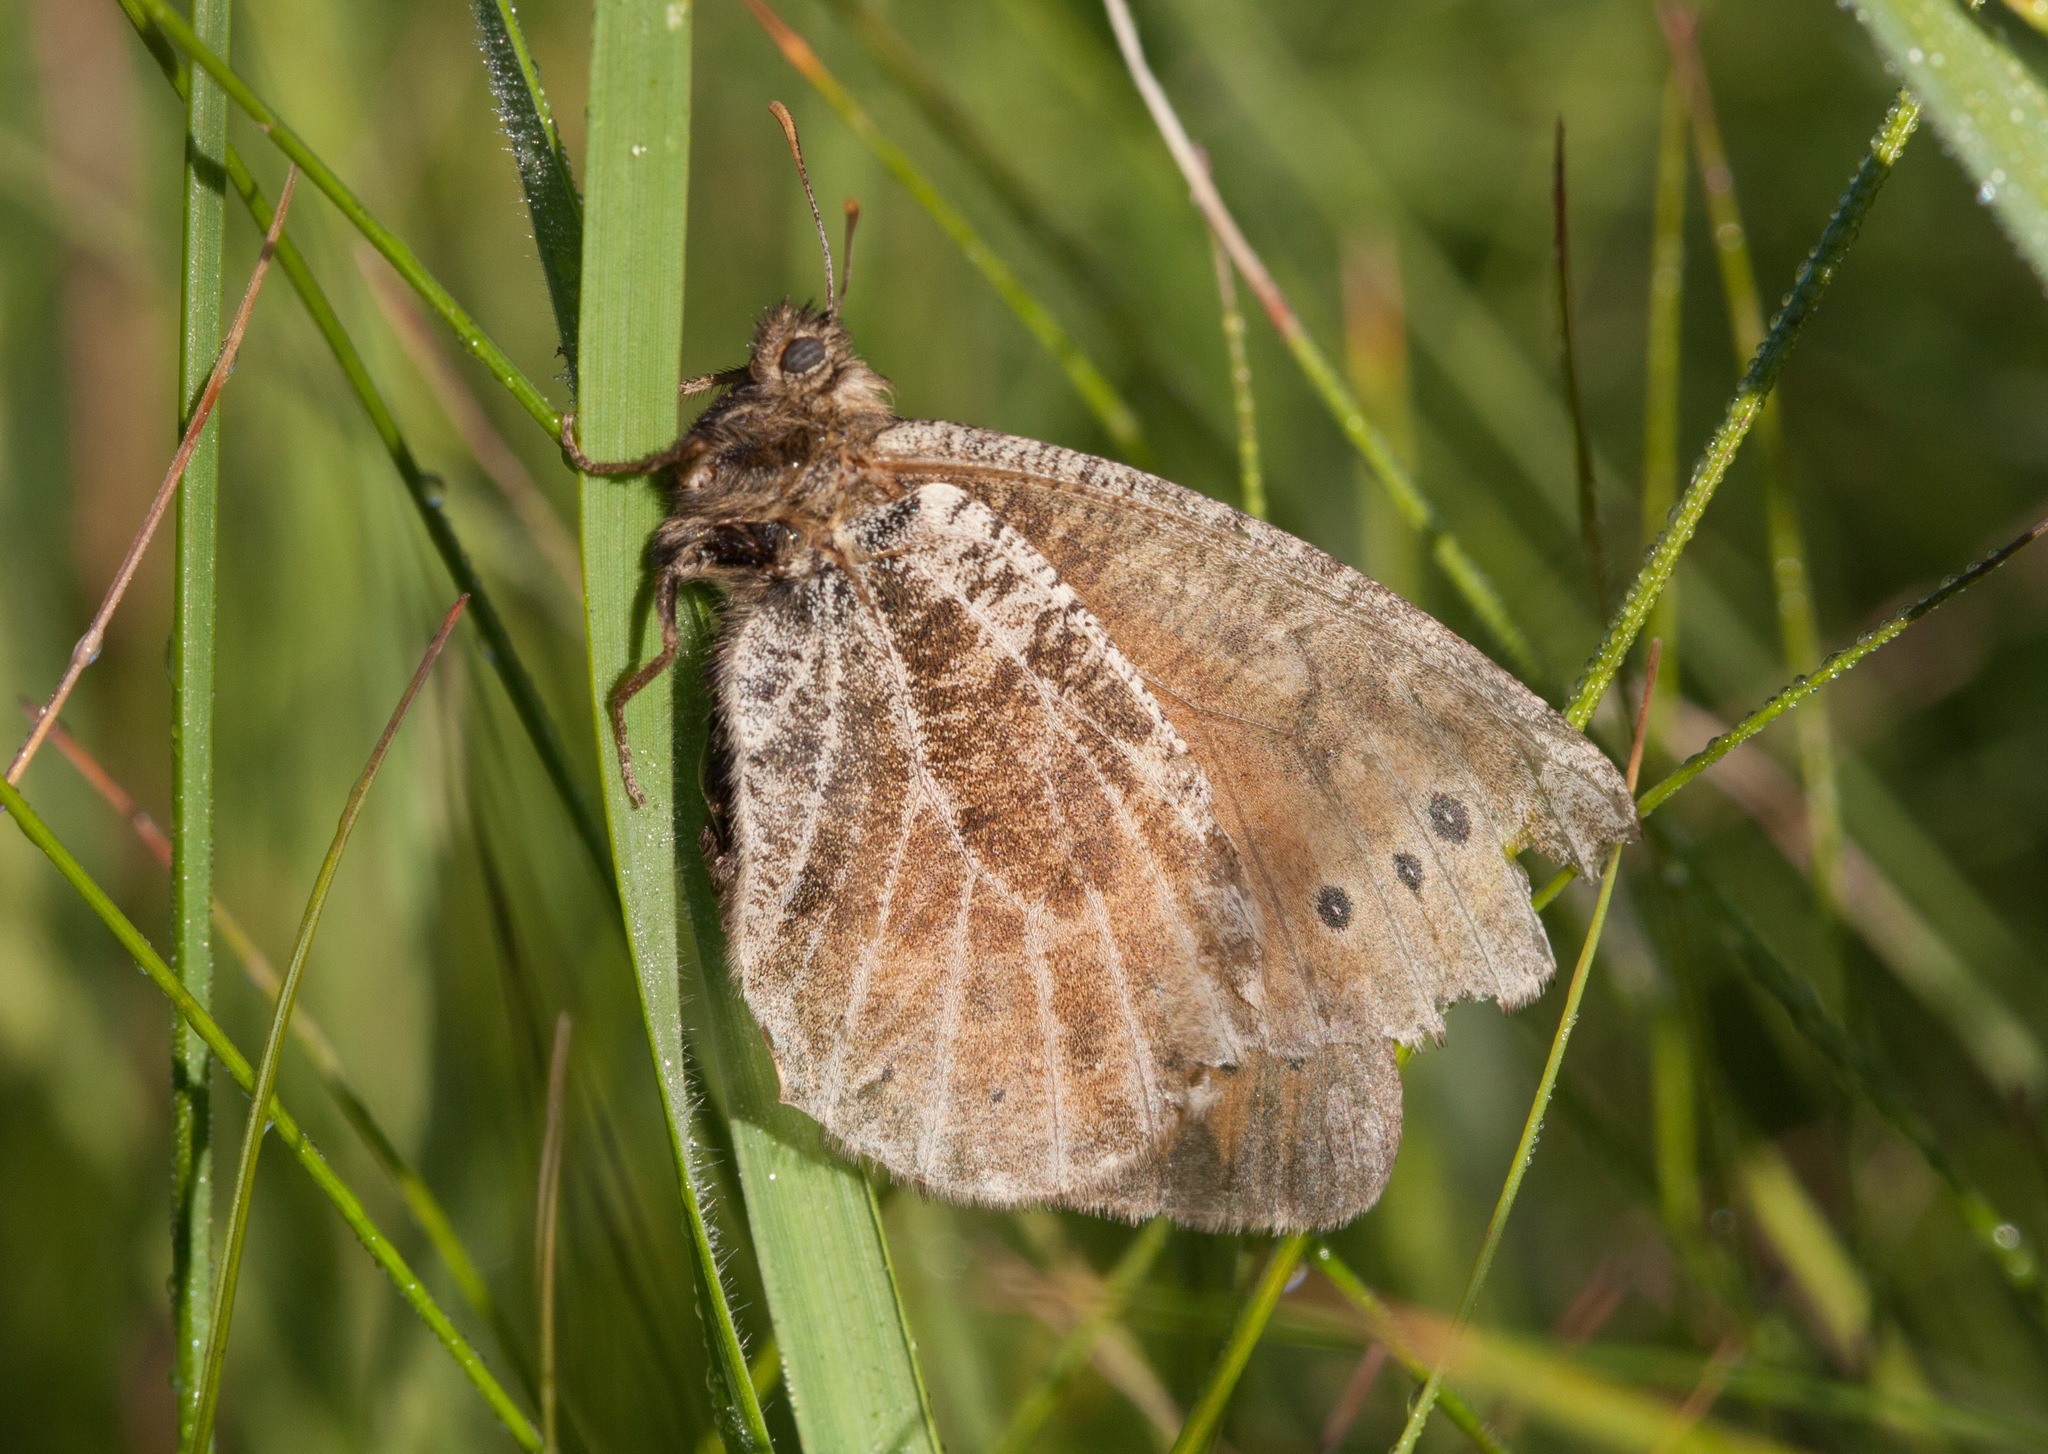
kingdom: Animalia
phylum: Arthropoda
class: Insecta
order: Lepidoptera
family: Nymphalidae
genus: Oeneis
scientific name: Oeneis tarpeia
